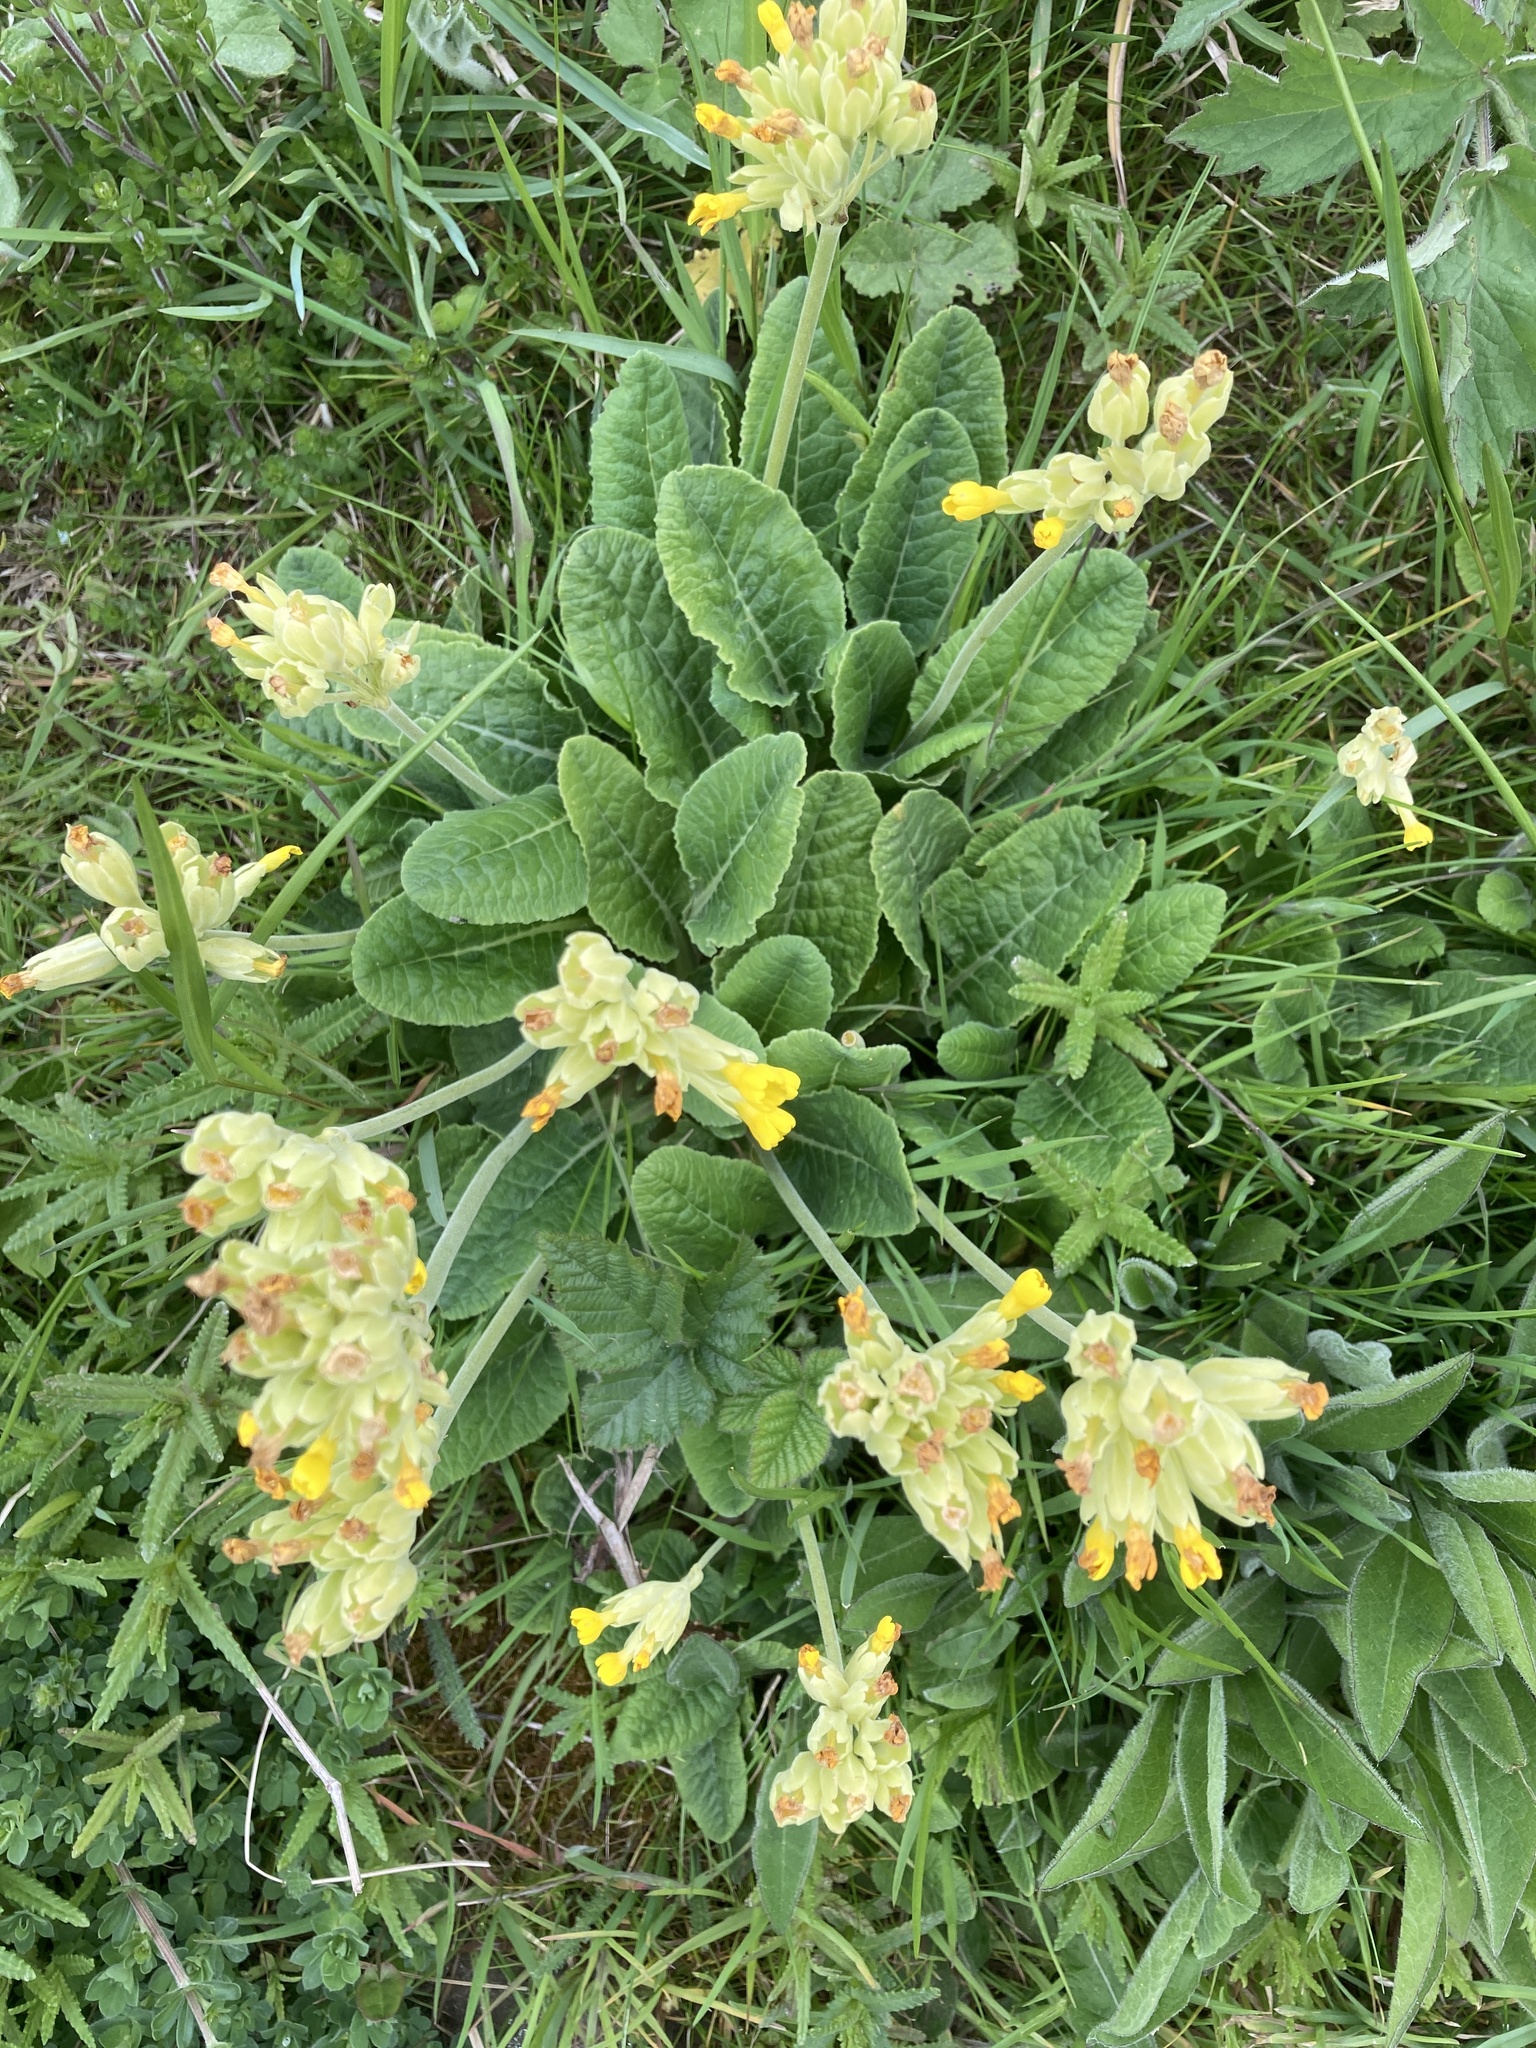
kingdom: Plantae
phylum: Tracheophyta
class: Magnoliopsida
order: Ericales
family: Primulaceae
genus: Primula
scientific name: Primula veris
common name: Cowslip
